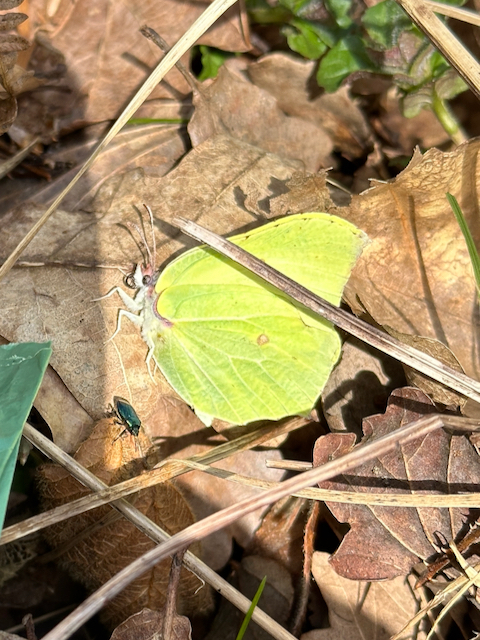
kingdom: Animalia
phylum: Arthropoda
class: Insecta
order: Lepidoptera
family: Pieridae
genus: Gonepteryx
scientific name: Gonepteryx rhamni
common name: Brimstone
